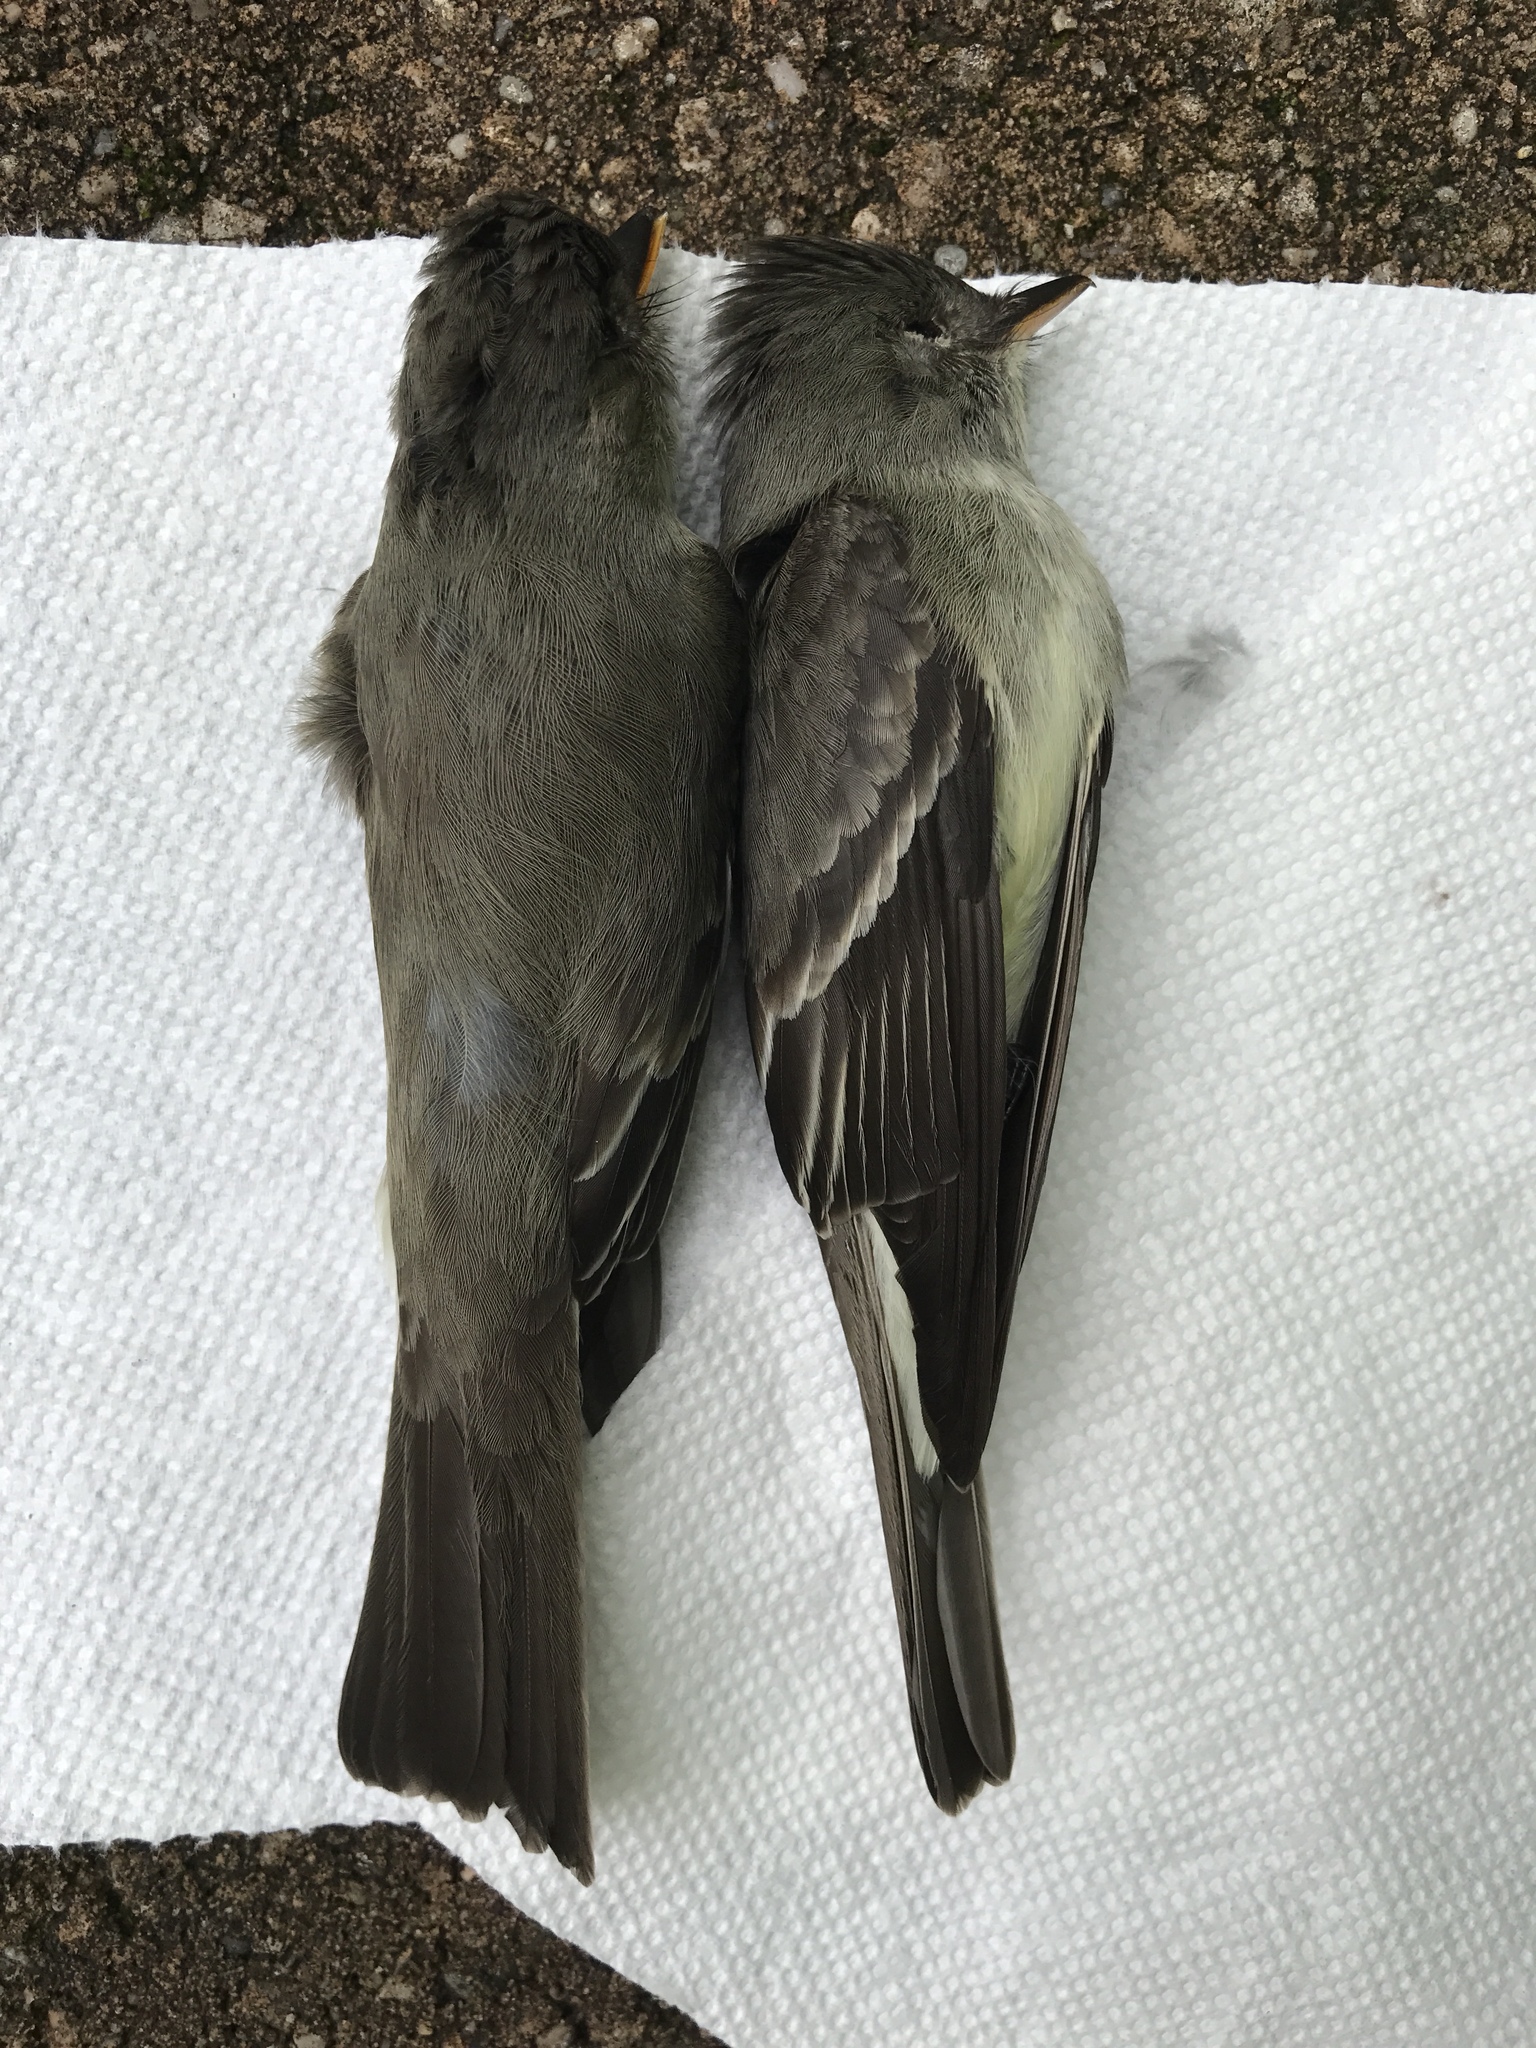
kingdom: Animalia
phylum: Chordata
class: Aves
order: Passeriformes
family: Tyrannidae
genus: Contopus
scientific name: Contopus virens
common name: Eastern wood-pewee
